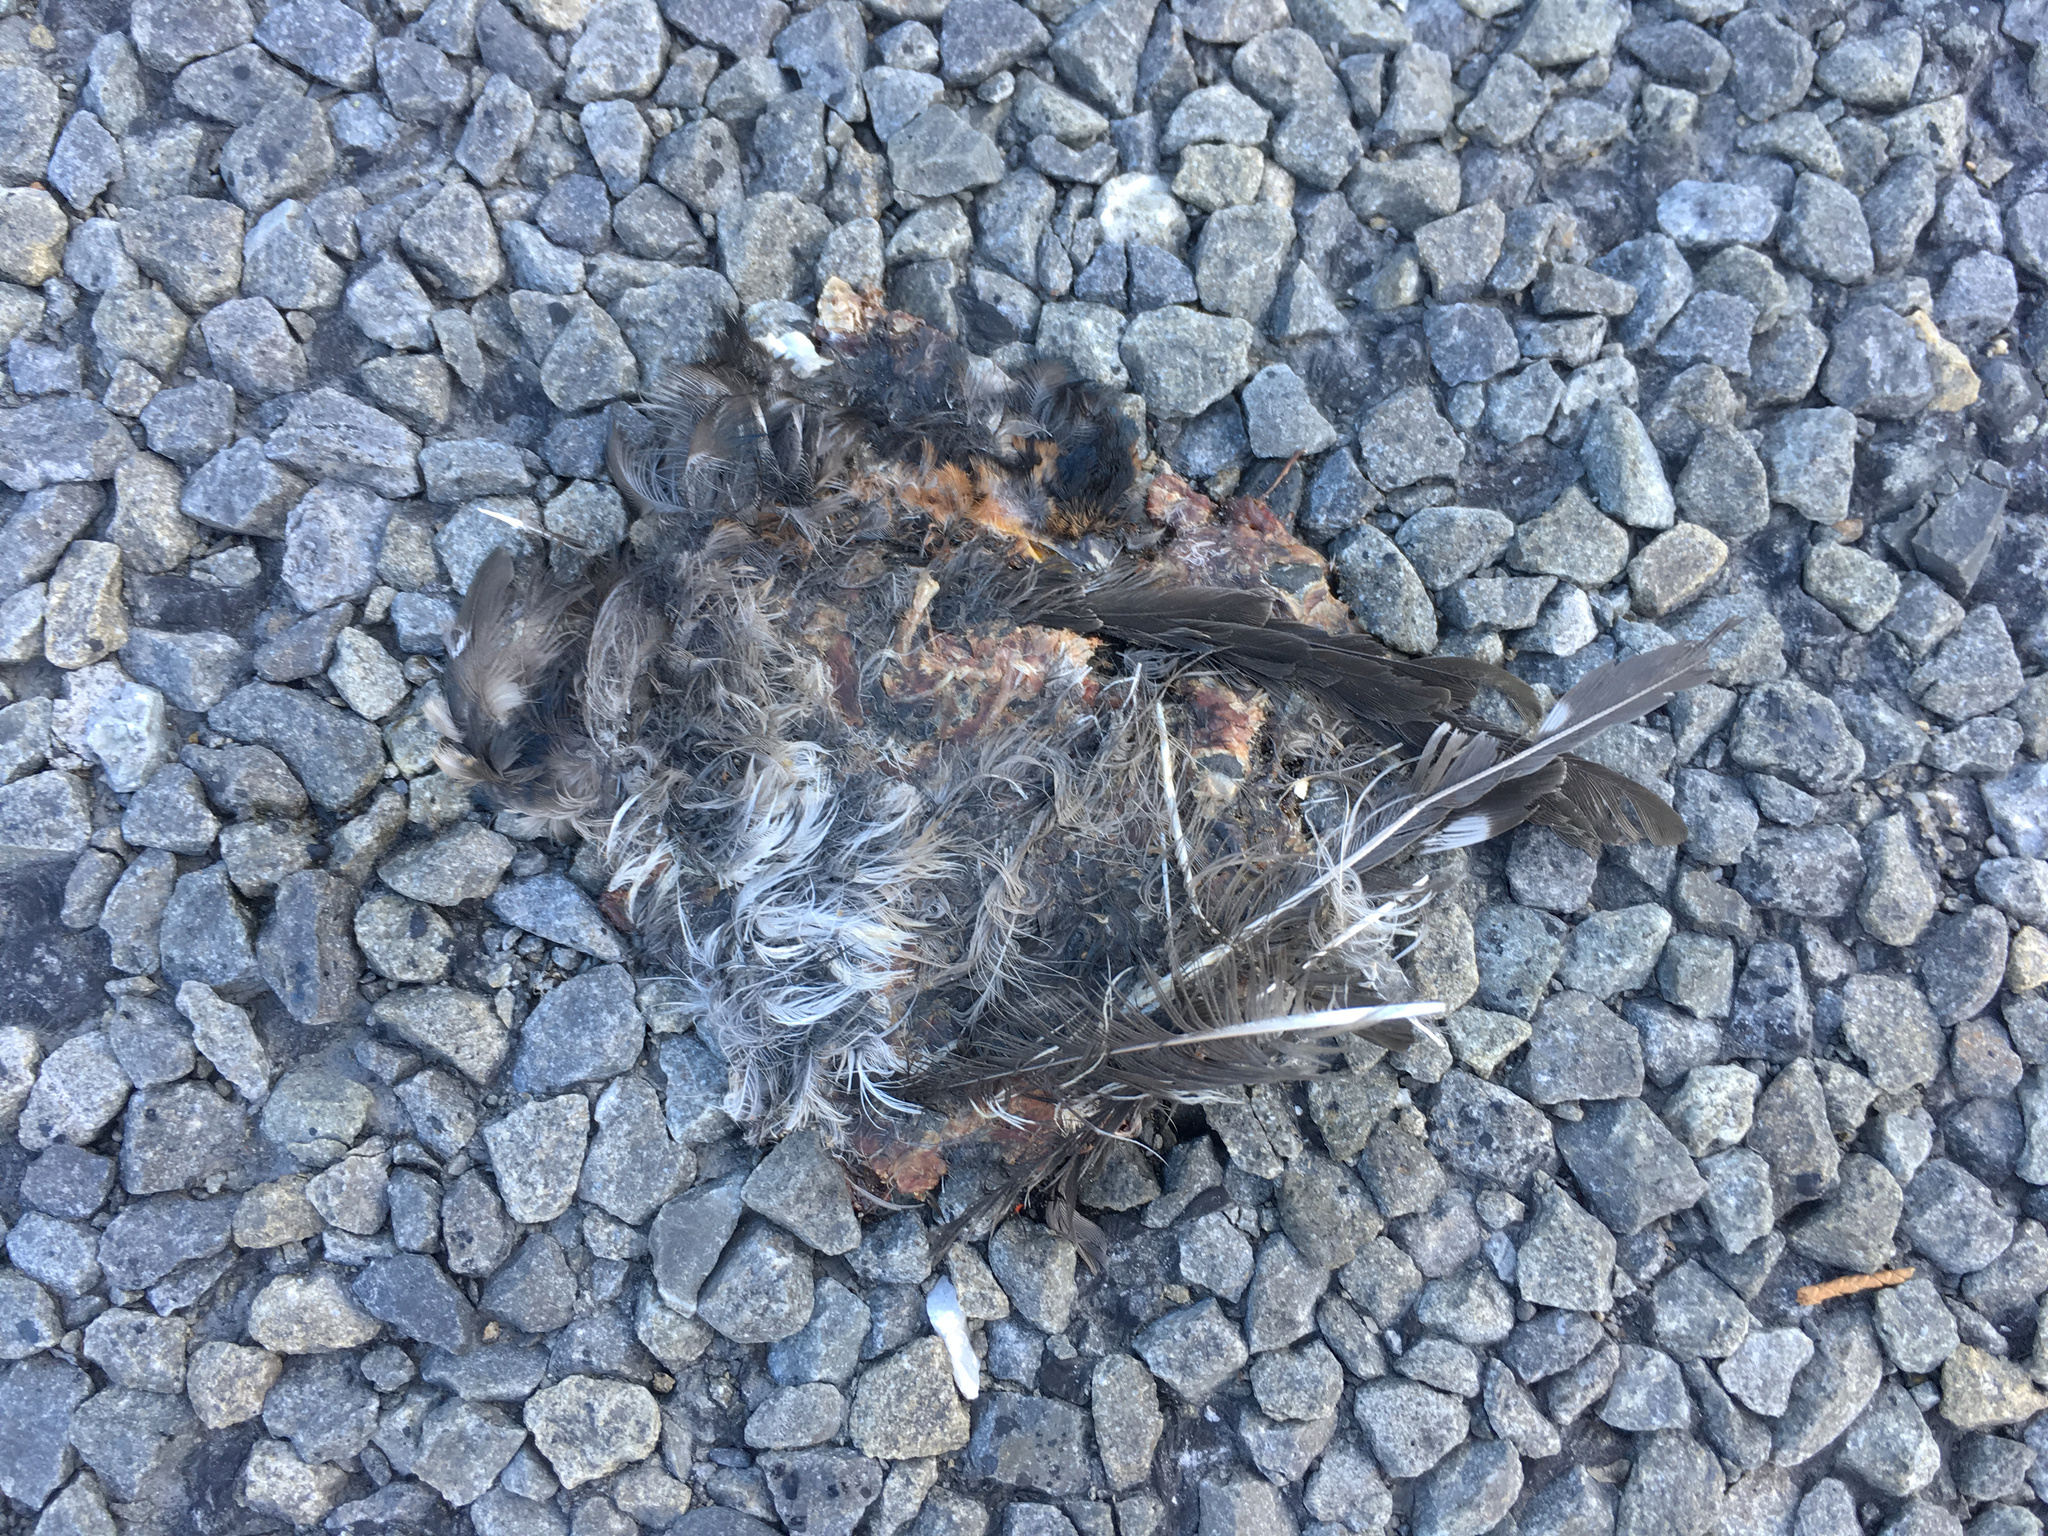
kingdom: Animalia
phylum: Chordata
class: Aves
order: Passeriformes
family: Hirundinidae
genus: Hirundo
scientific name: Hirundo neoxena
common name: Welcome swallow
